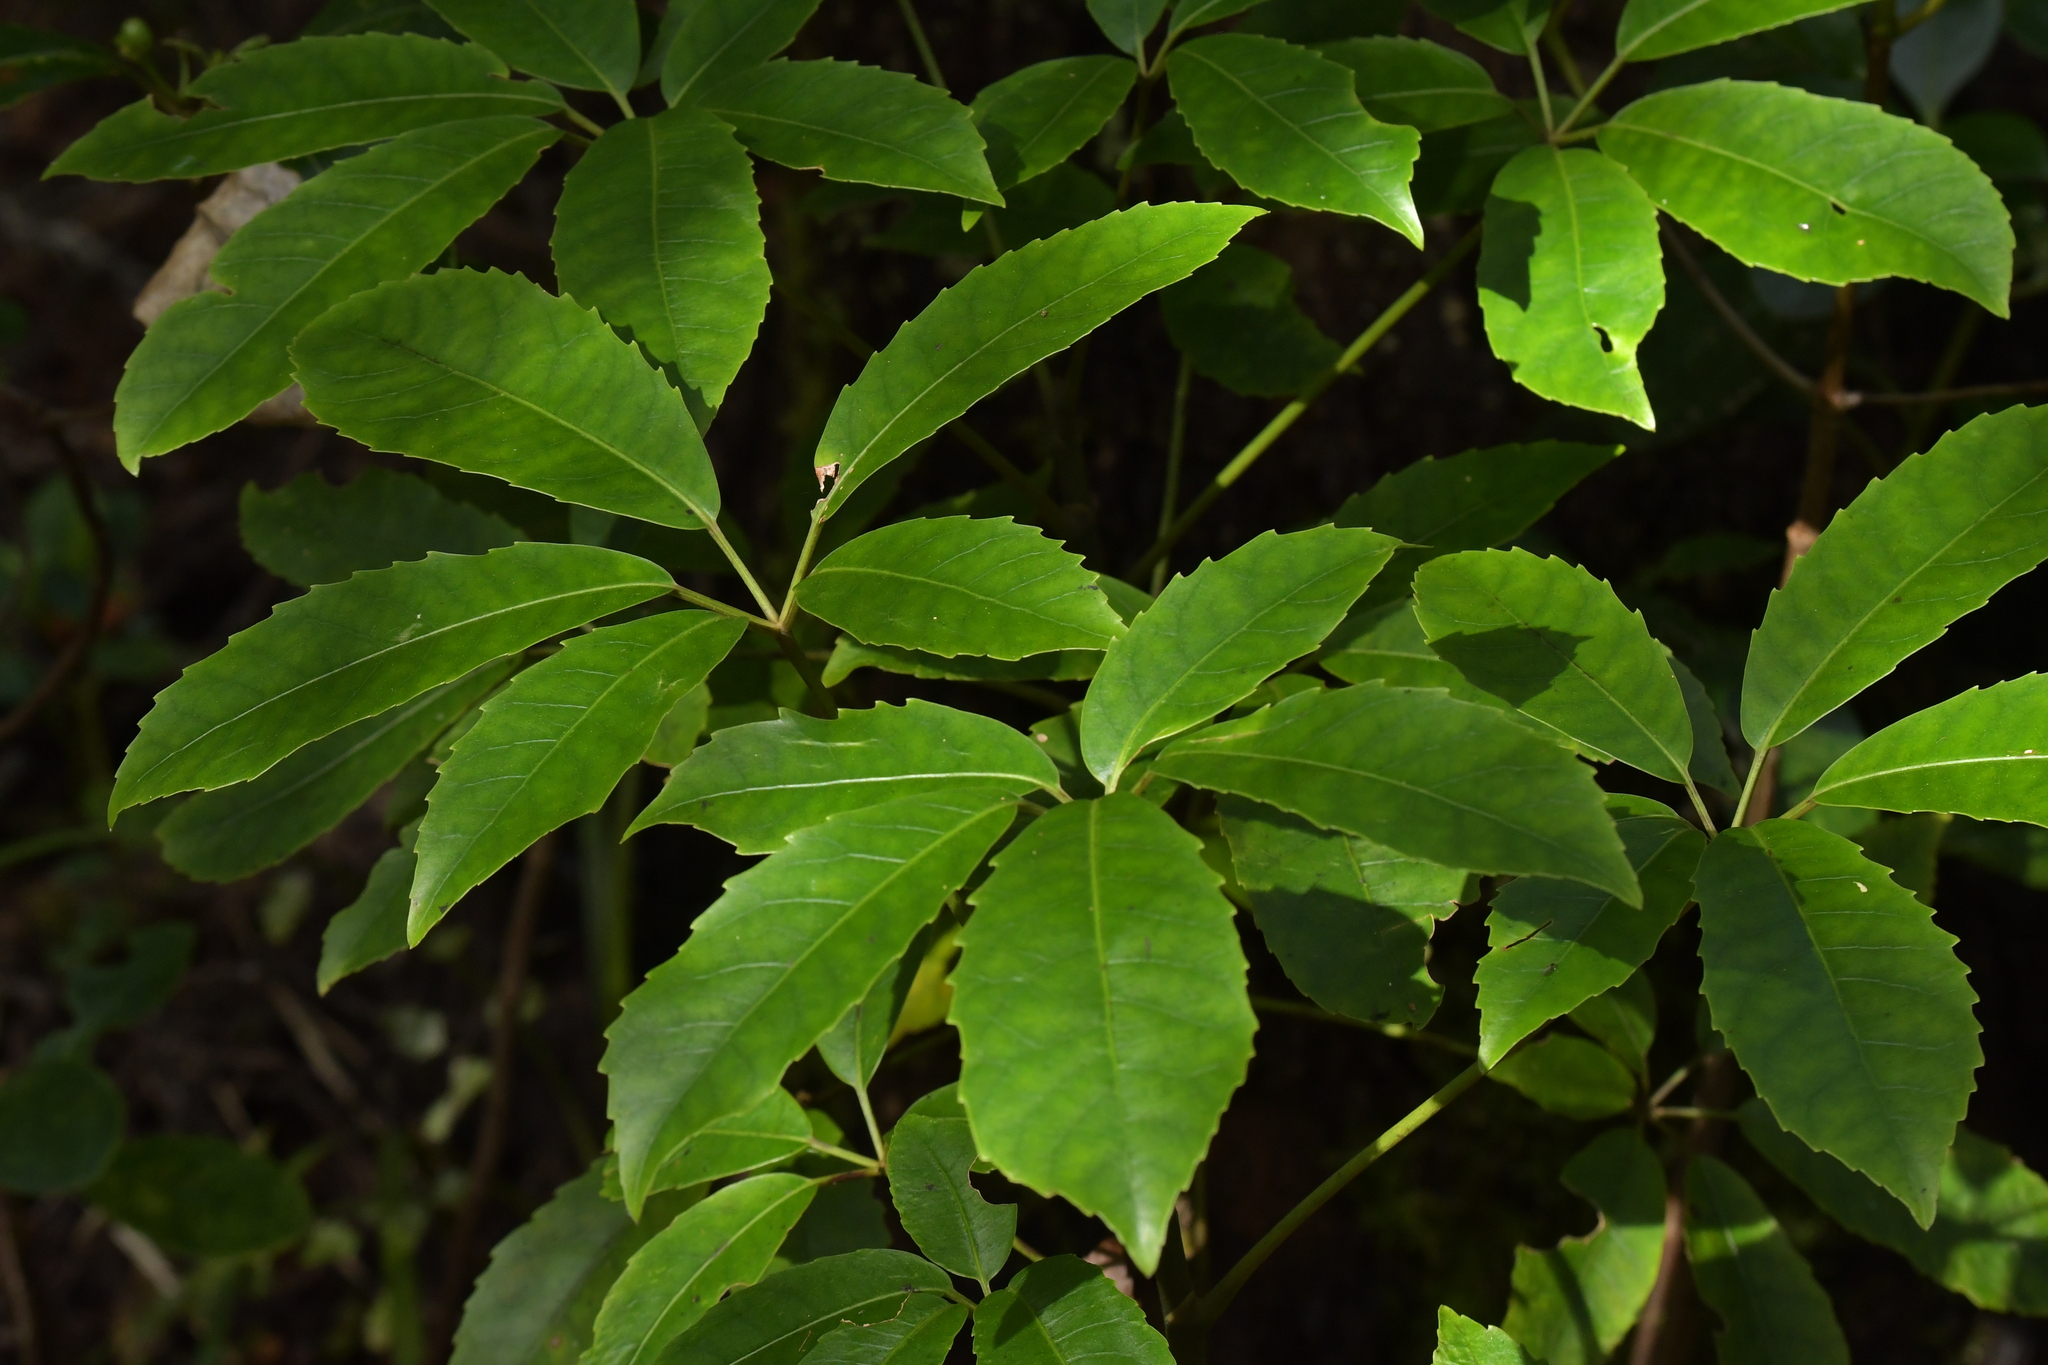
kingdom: Plantae
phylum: Tracheophyta
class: Magnoliopsida
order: Apiales
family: Araliaceae
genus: Neopanax
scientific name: Neopanax arboreus
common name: Five-fingers
